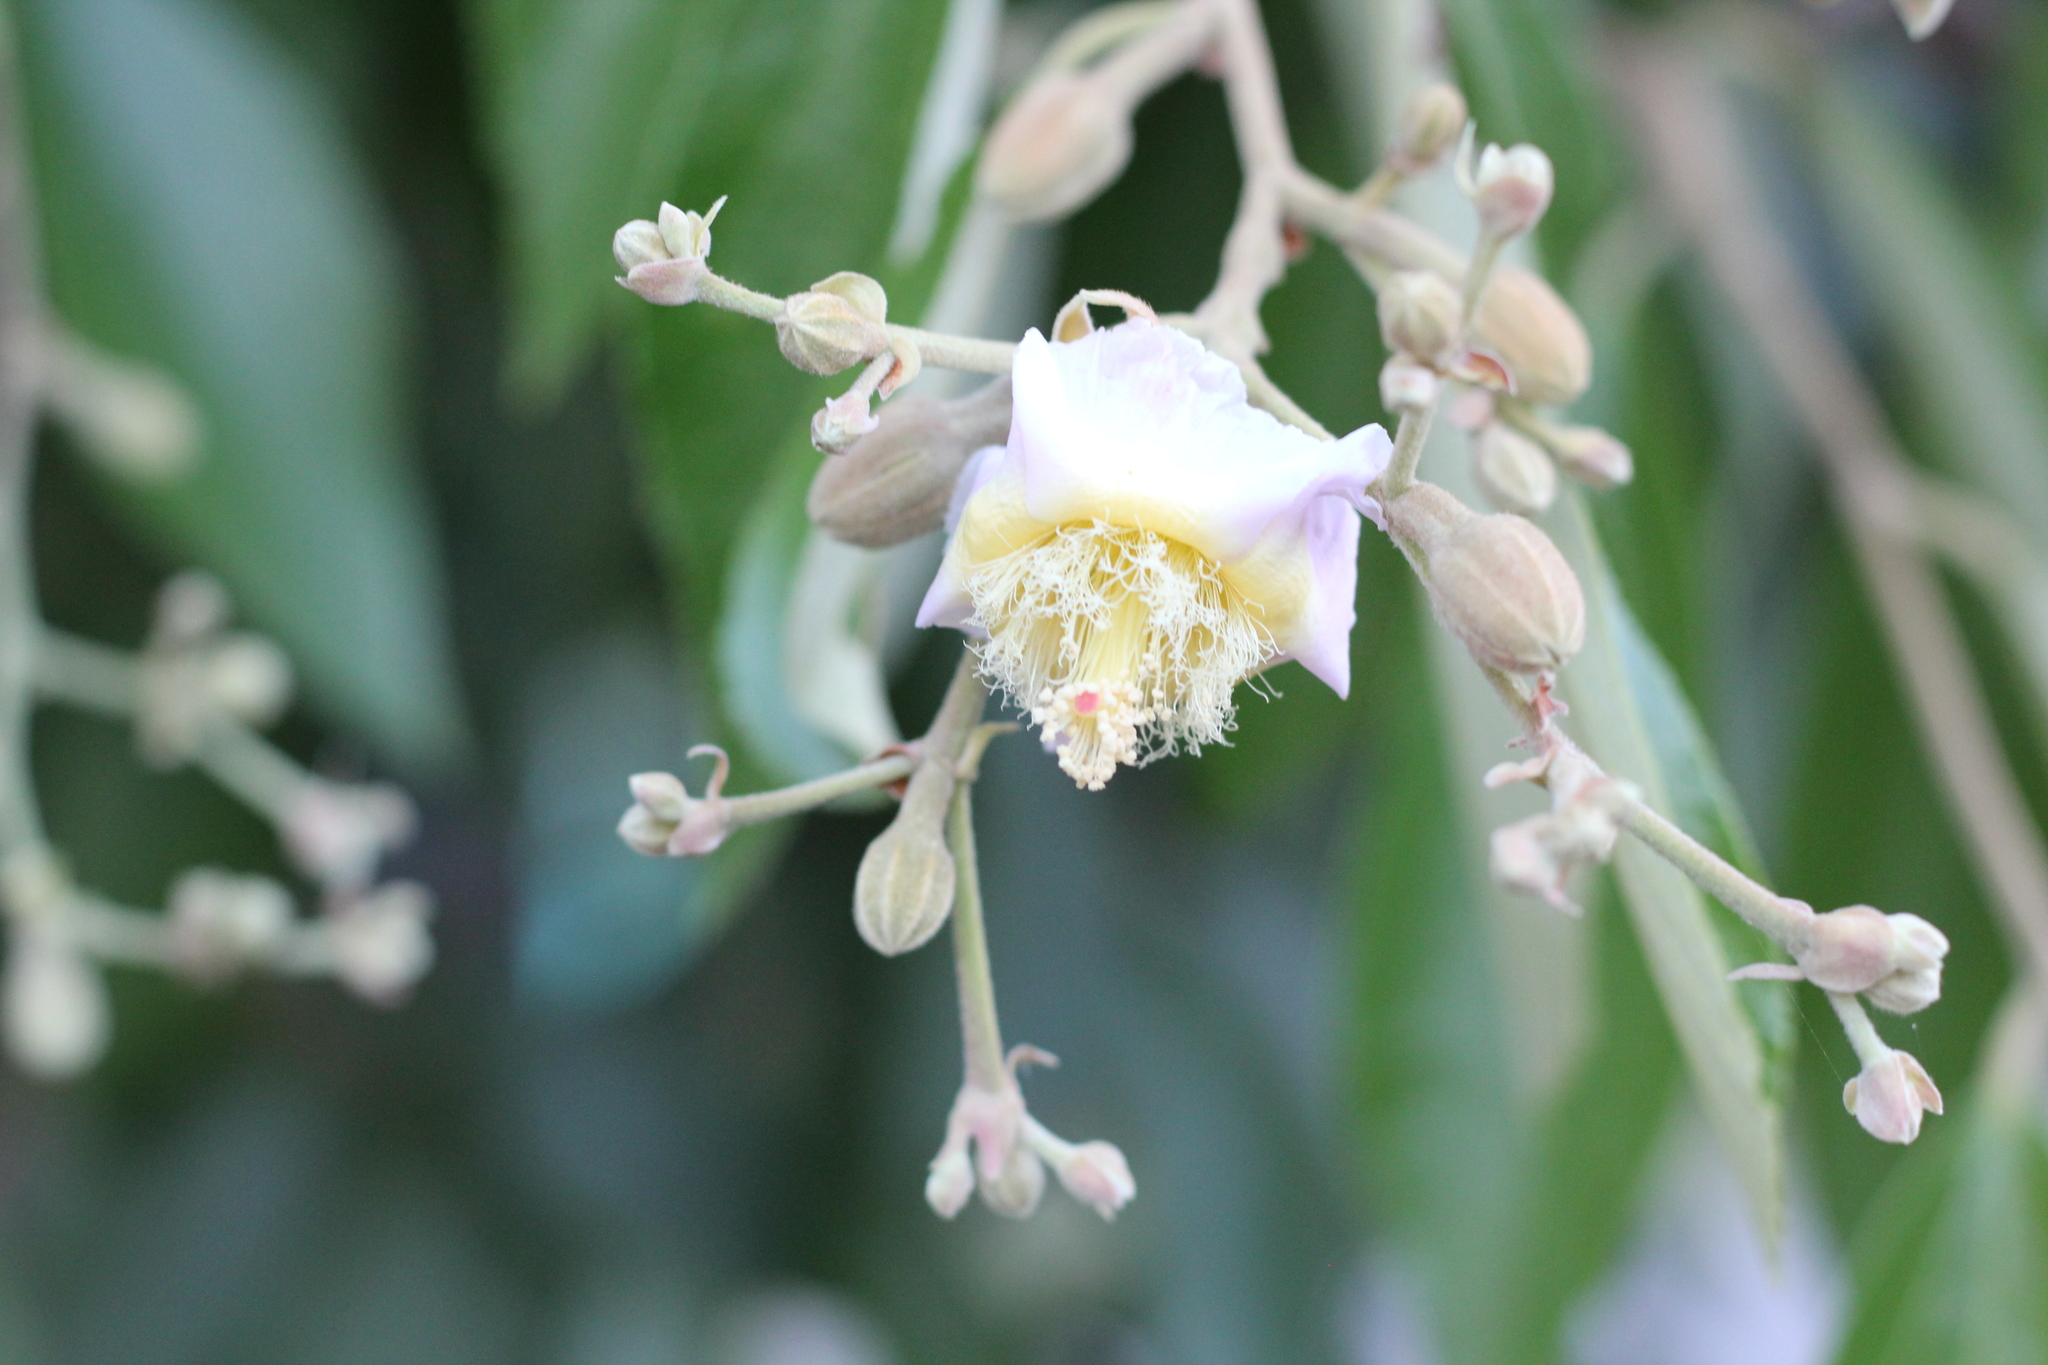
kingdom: Plantae
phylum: Tracheophyta
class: Magnoliopsida
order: Malvales
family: Malvaceae
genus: Luehea
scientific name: Luehea divaricata
